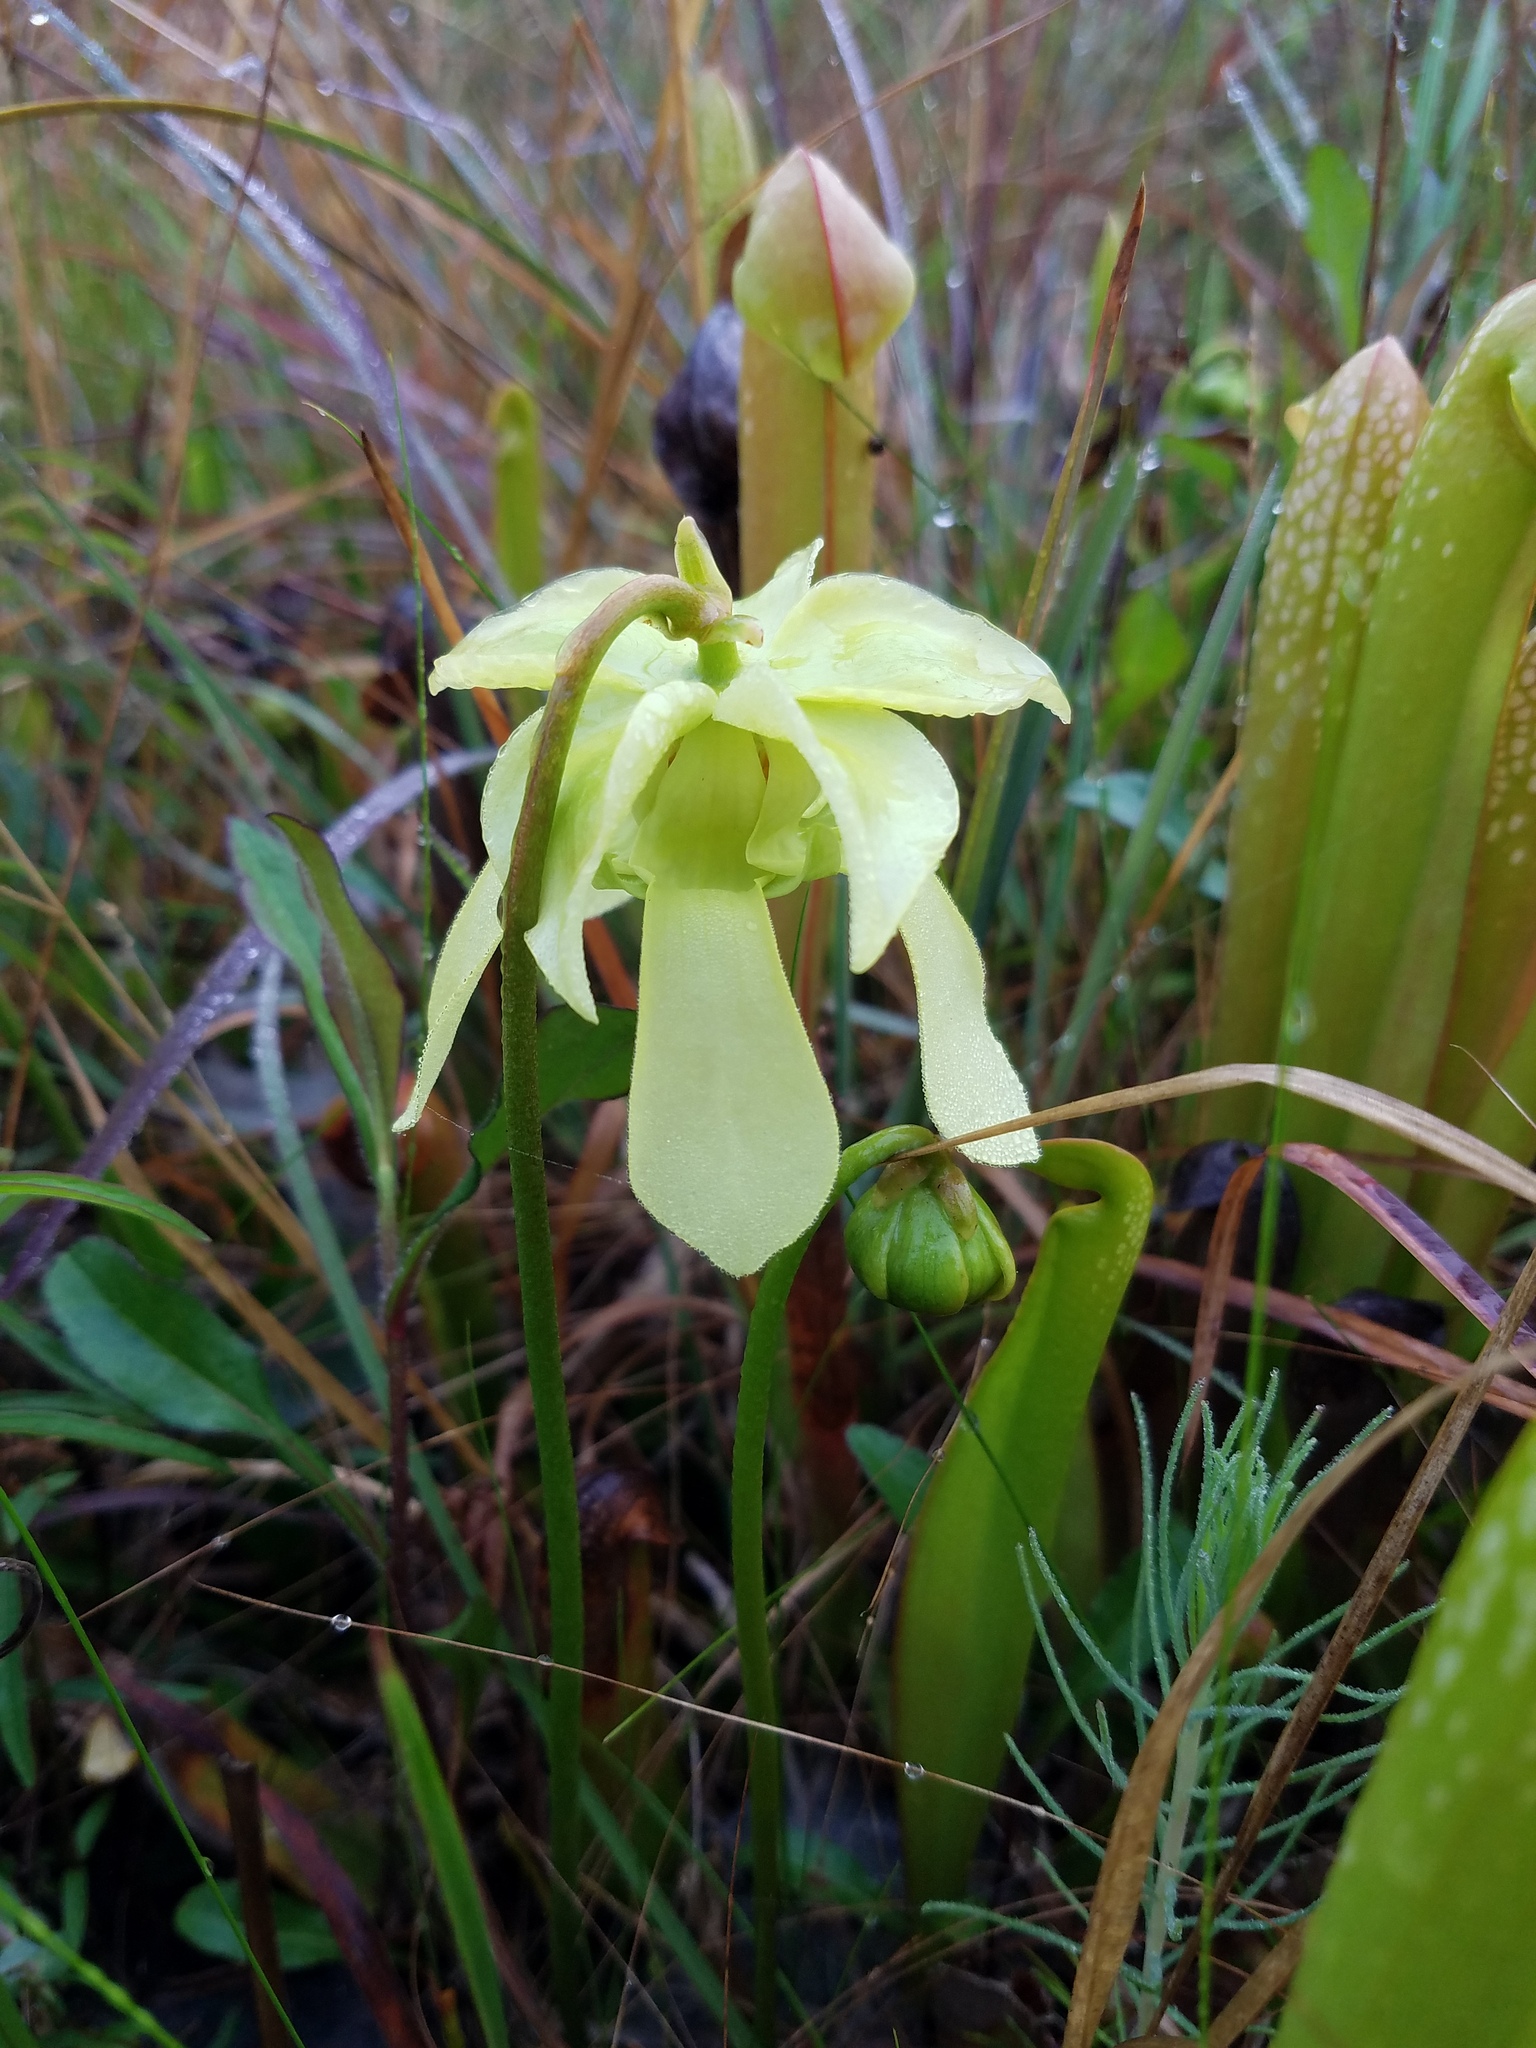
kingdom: Plantae
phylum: Tracheophyta
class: Magnoliopsida
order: Ericales
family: Sarraceniaceae
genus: Sarracenia
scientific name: Sarracenia minor
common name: Rainhat-trumpet
